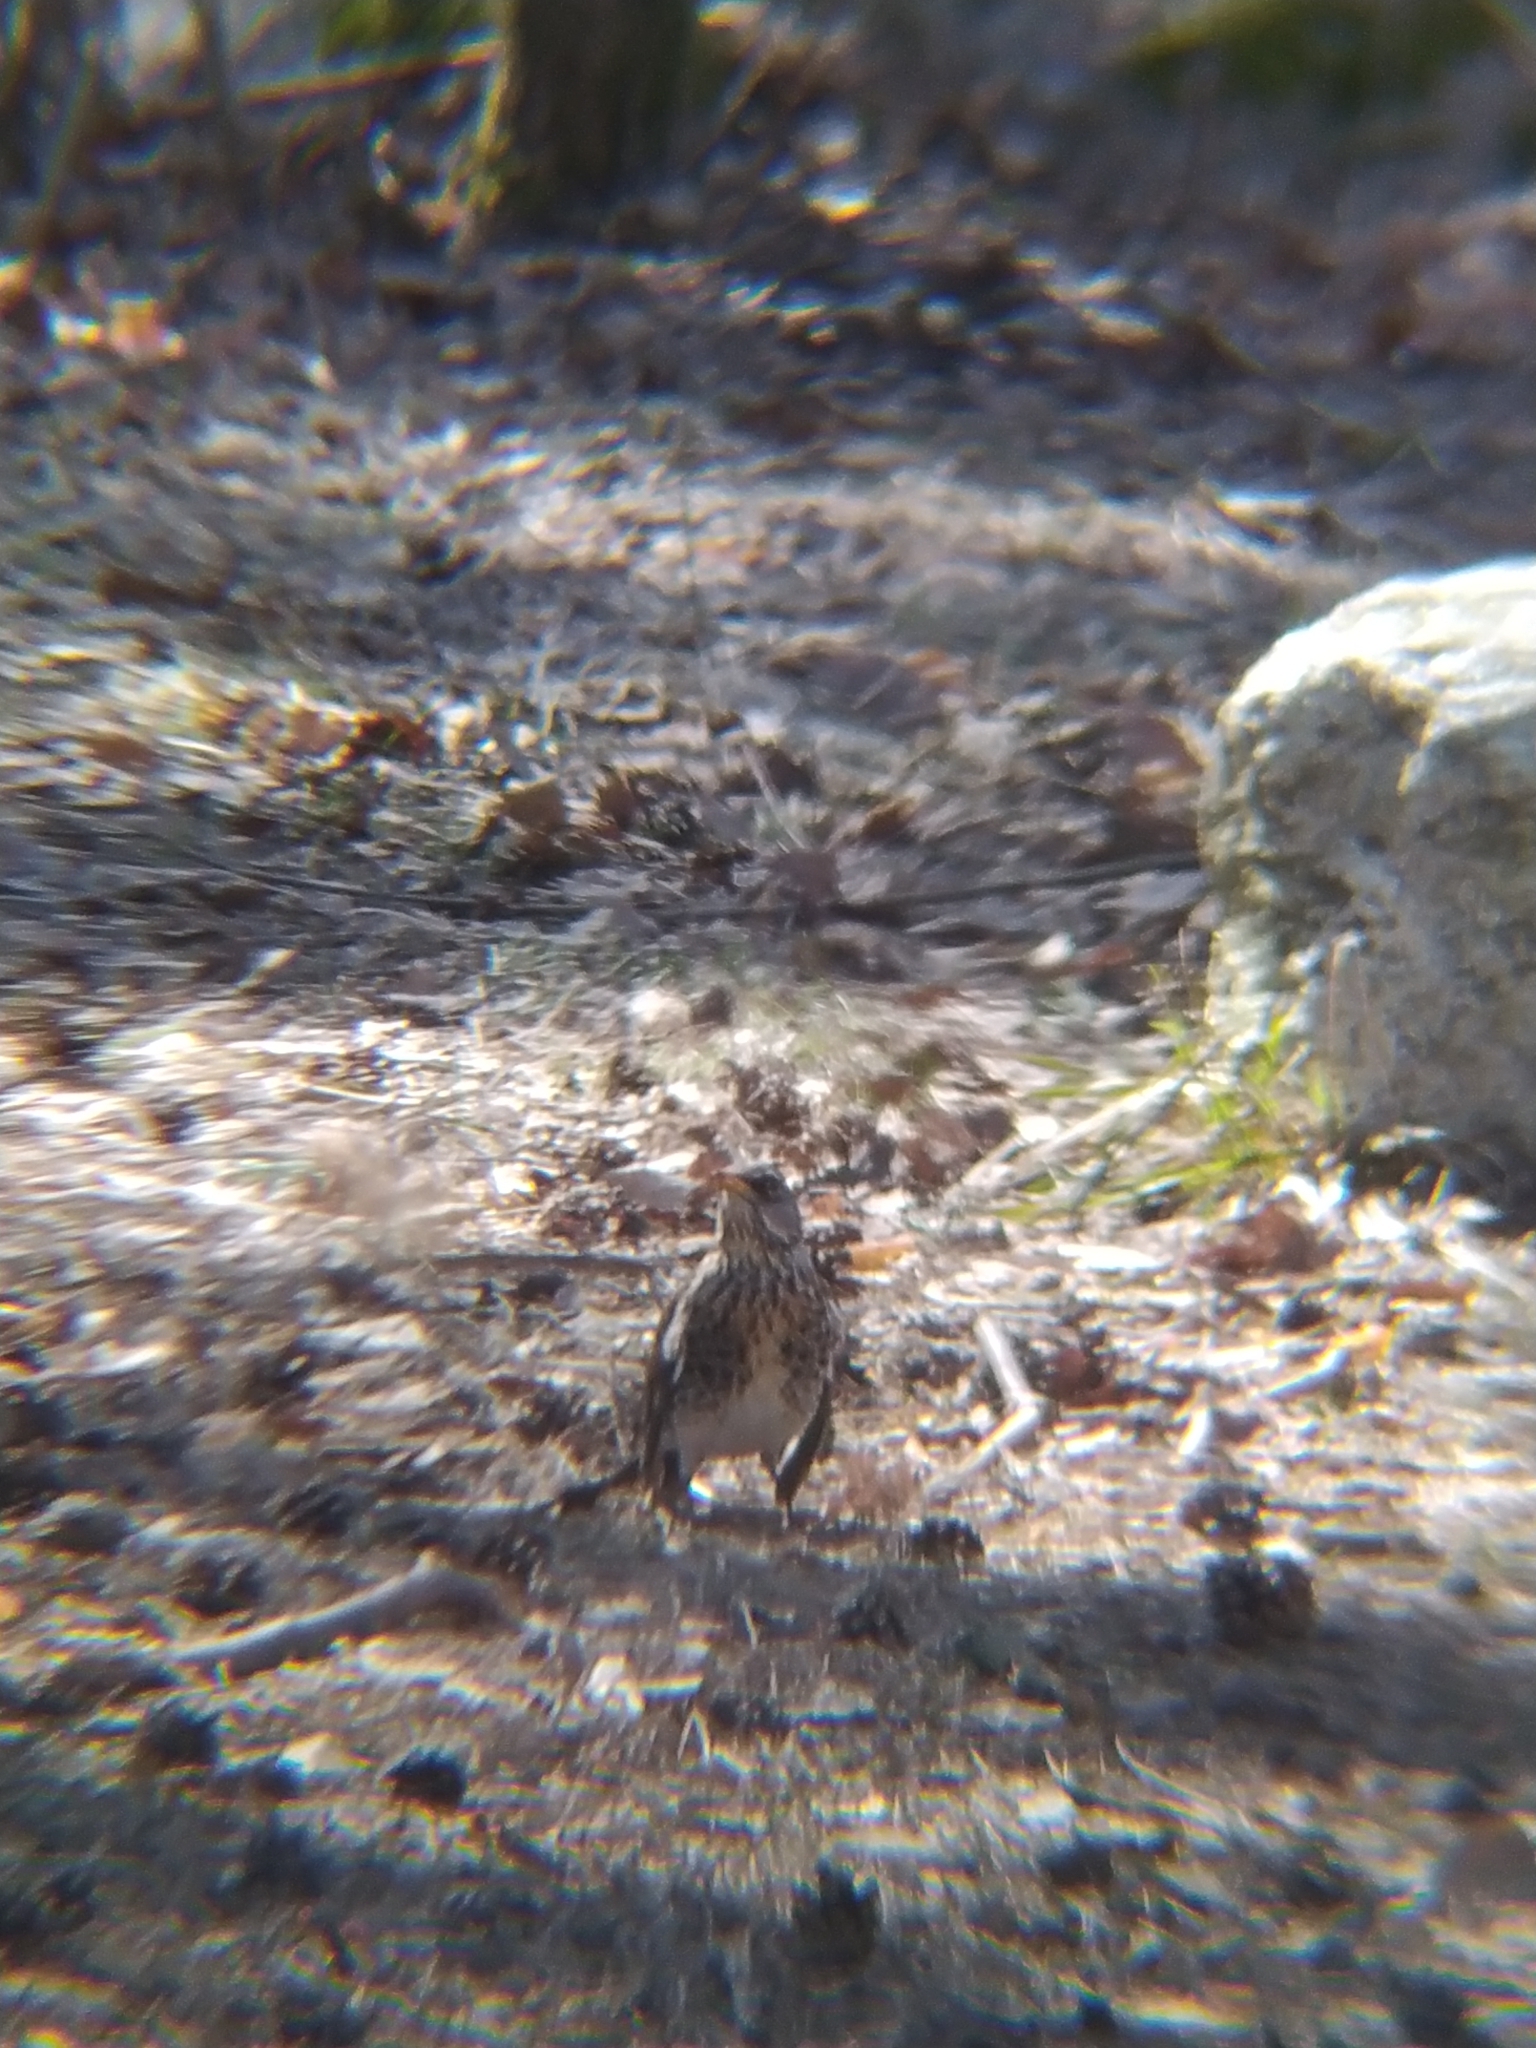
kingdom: Animalia
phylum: Chordata
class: Aves
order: Passeriformes
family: Turdidae
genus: Turdus
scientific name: Turdus pilaris
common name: Fieldfare
